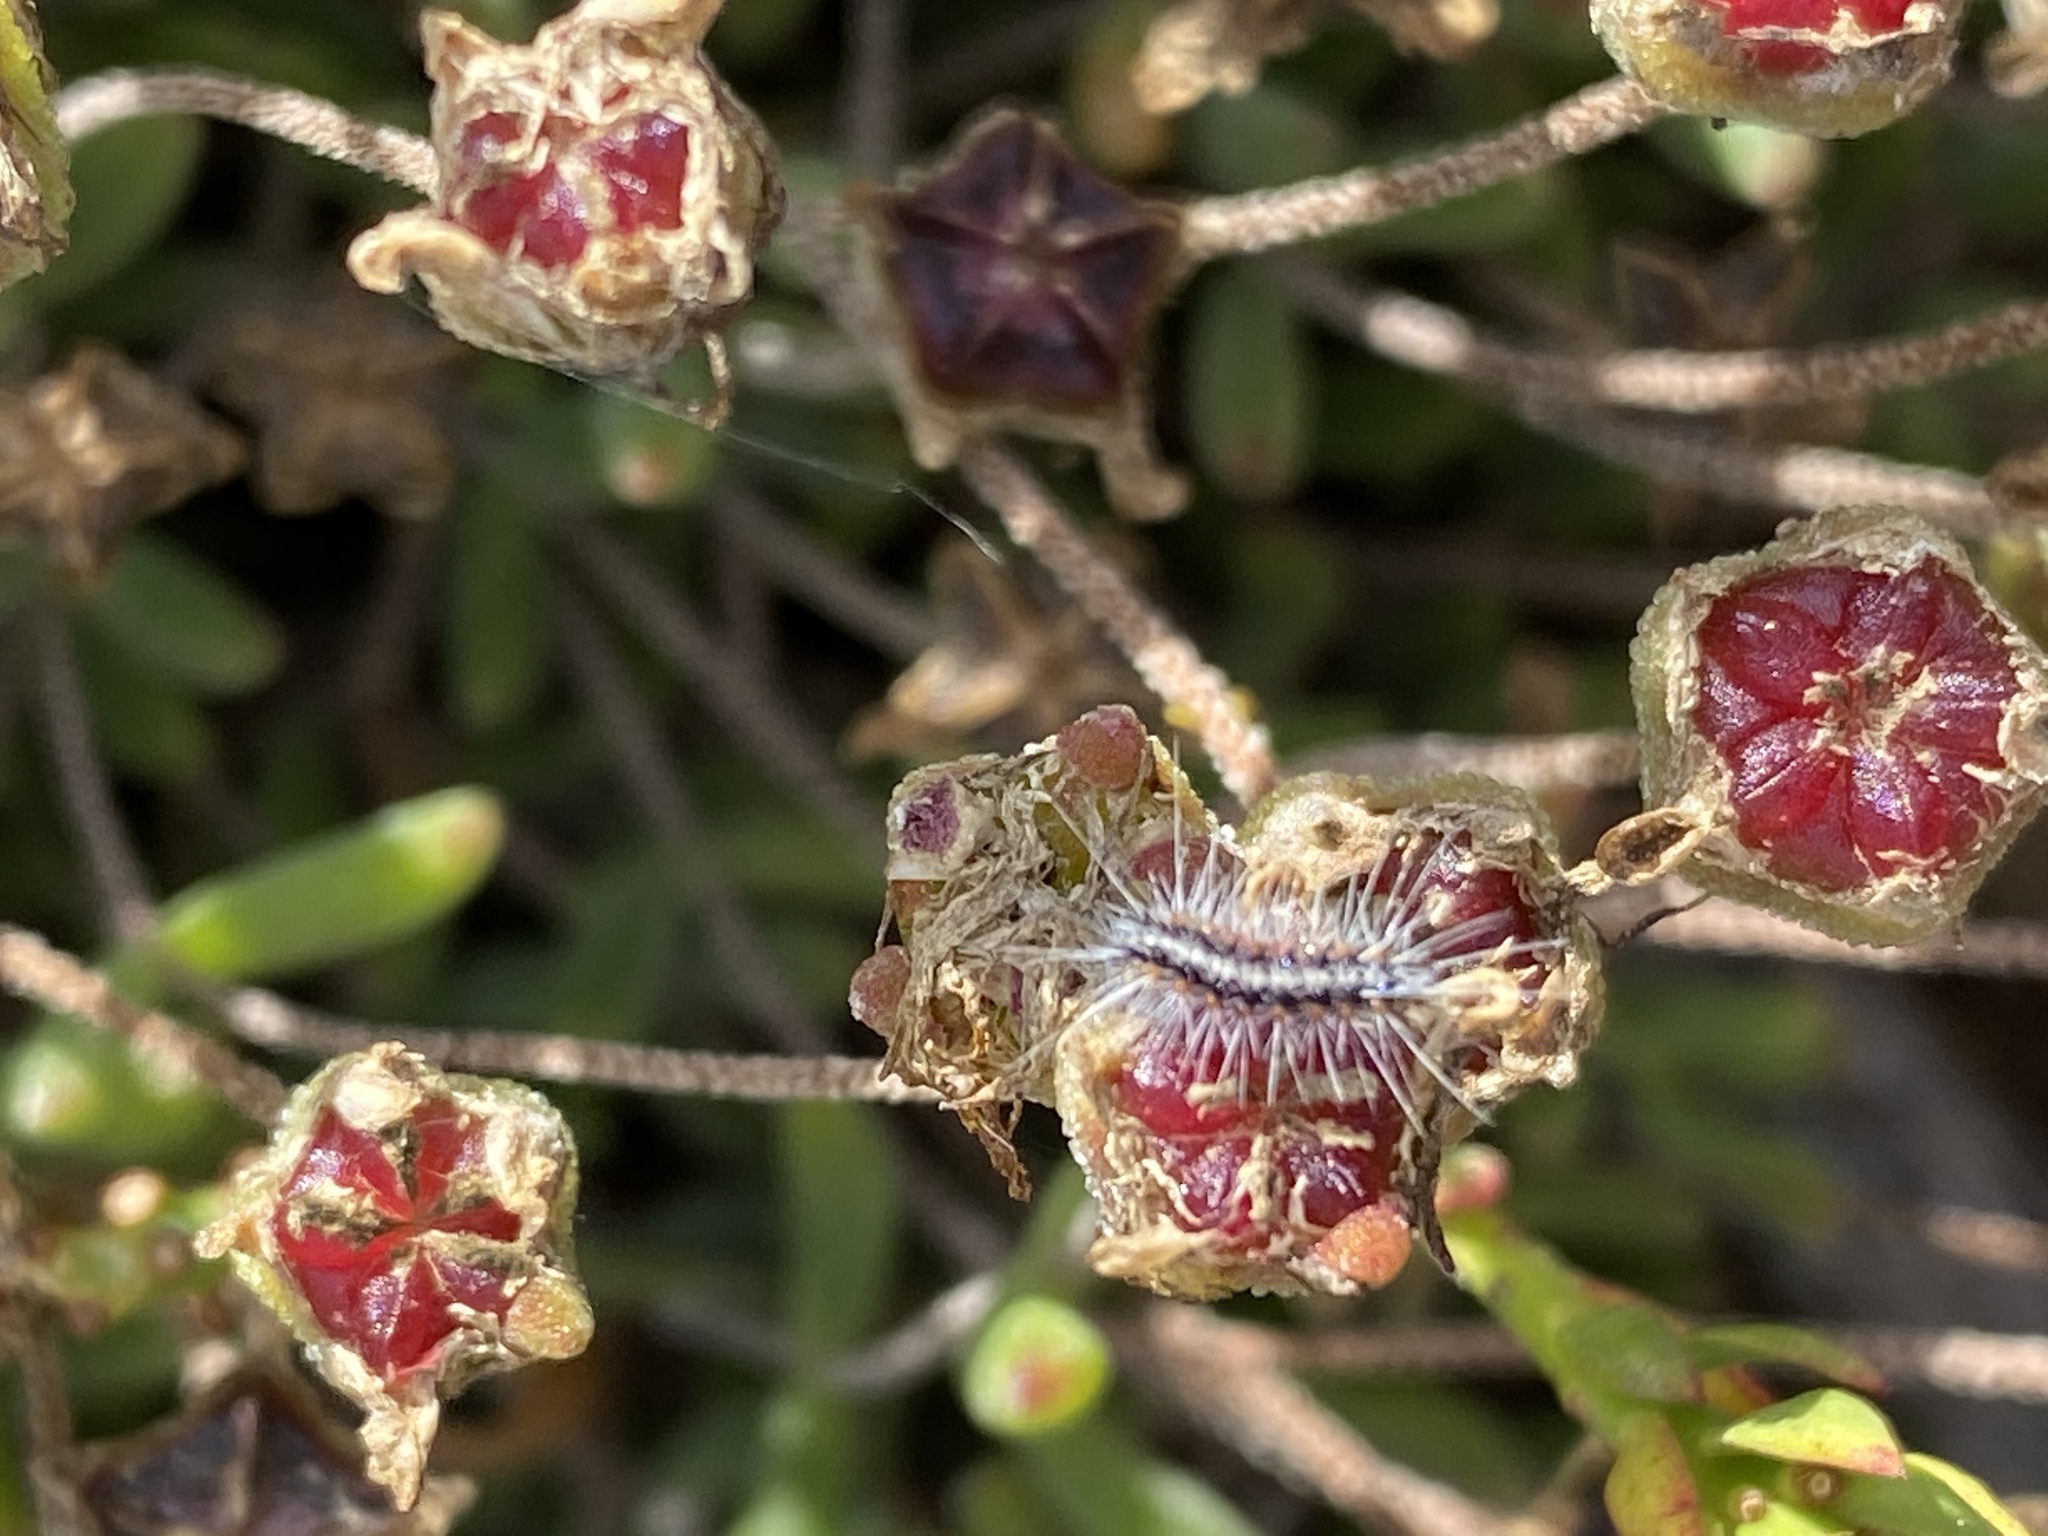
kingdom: Plantae
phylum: Tracheophyta
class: Magnoliopsida
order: Caryophyllales
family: Aizoaceae
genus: Drosanthemum
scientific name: Drosanthemum flavum
